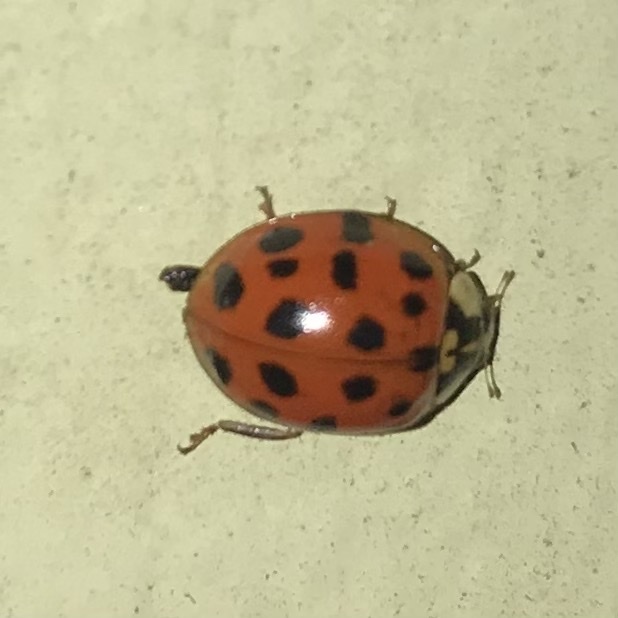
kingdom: Animalia
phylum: Arthropoda
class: Insecta
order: Coleoptera
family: Coccinellidae
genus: Harmonia
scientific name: Harmonia axyridis
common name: Harlequin ladybird
